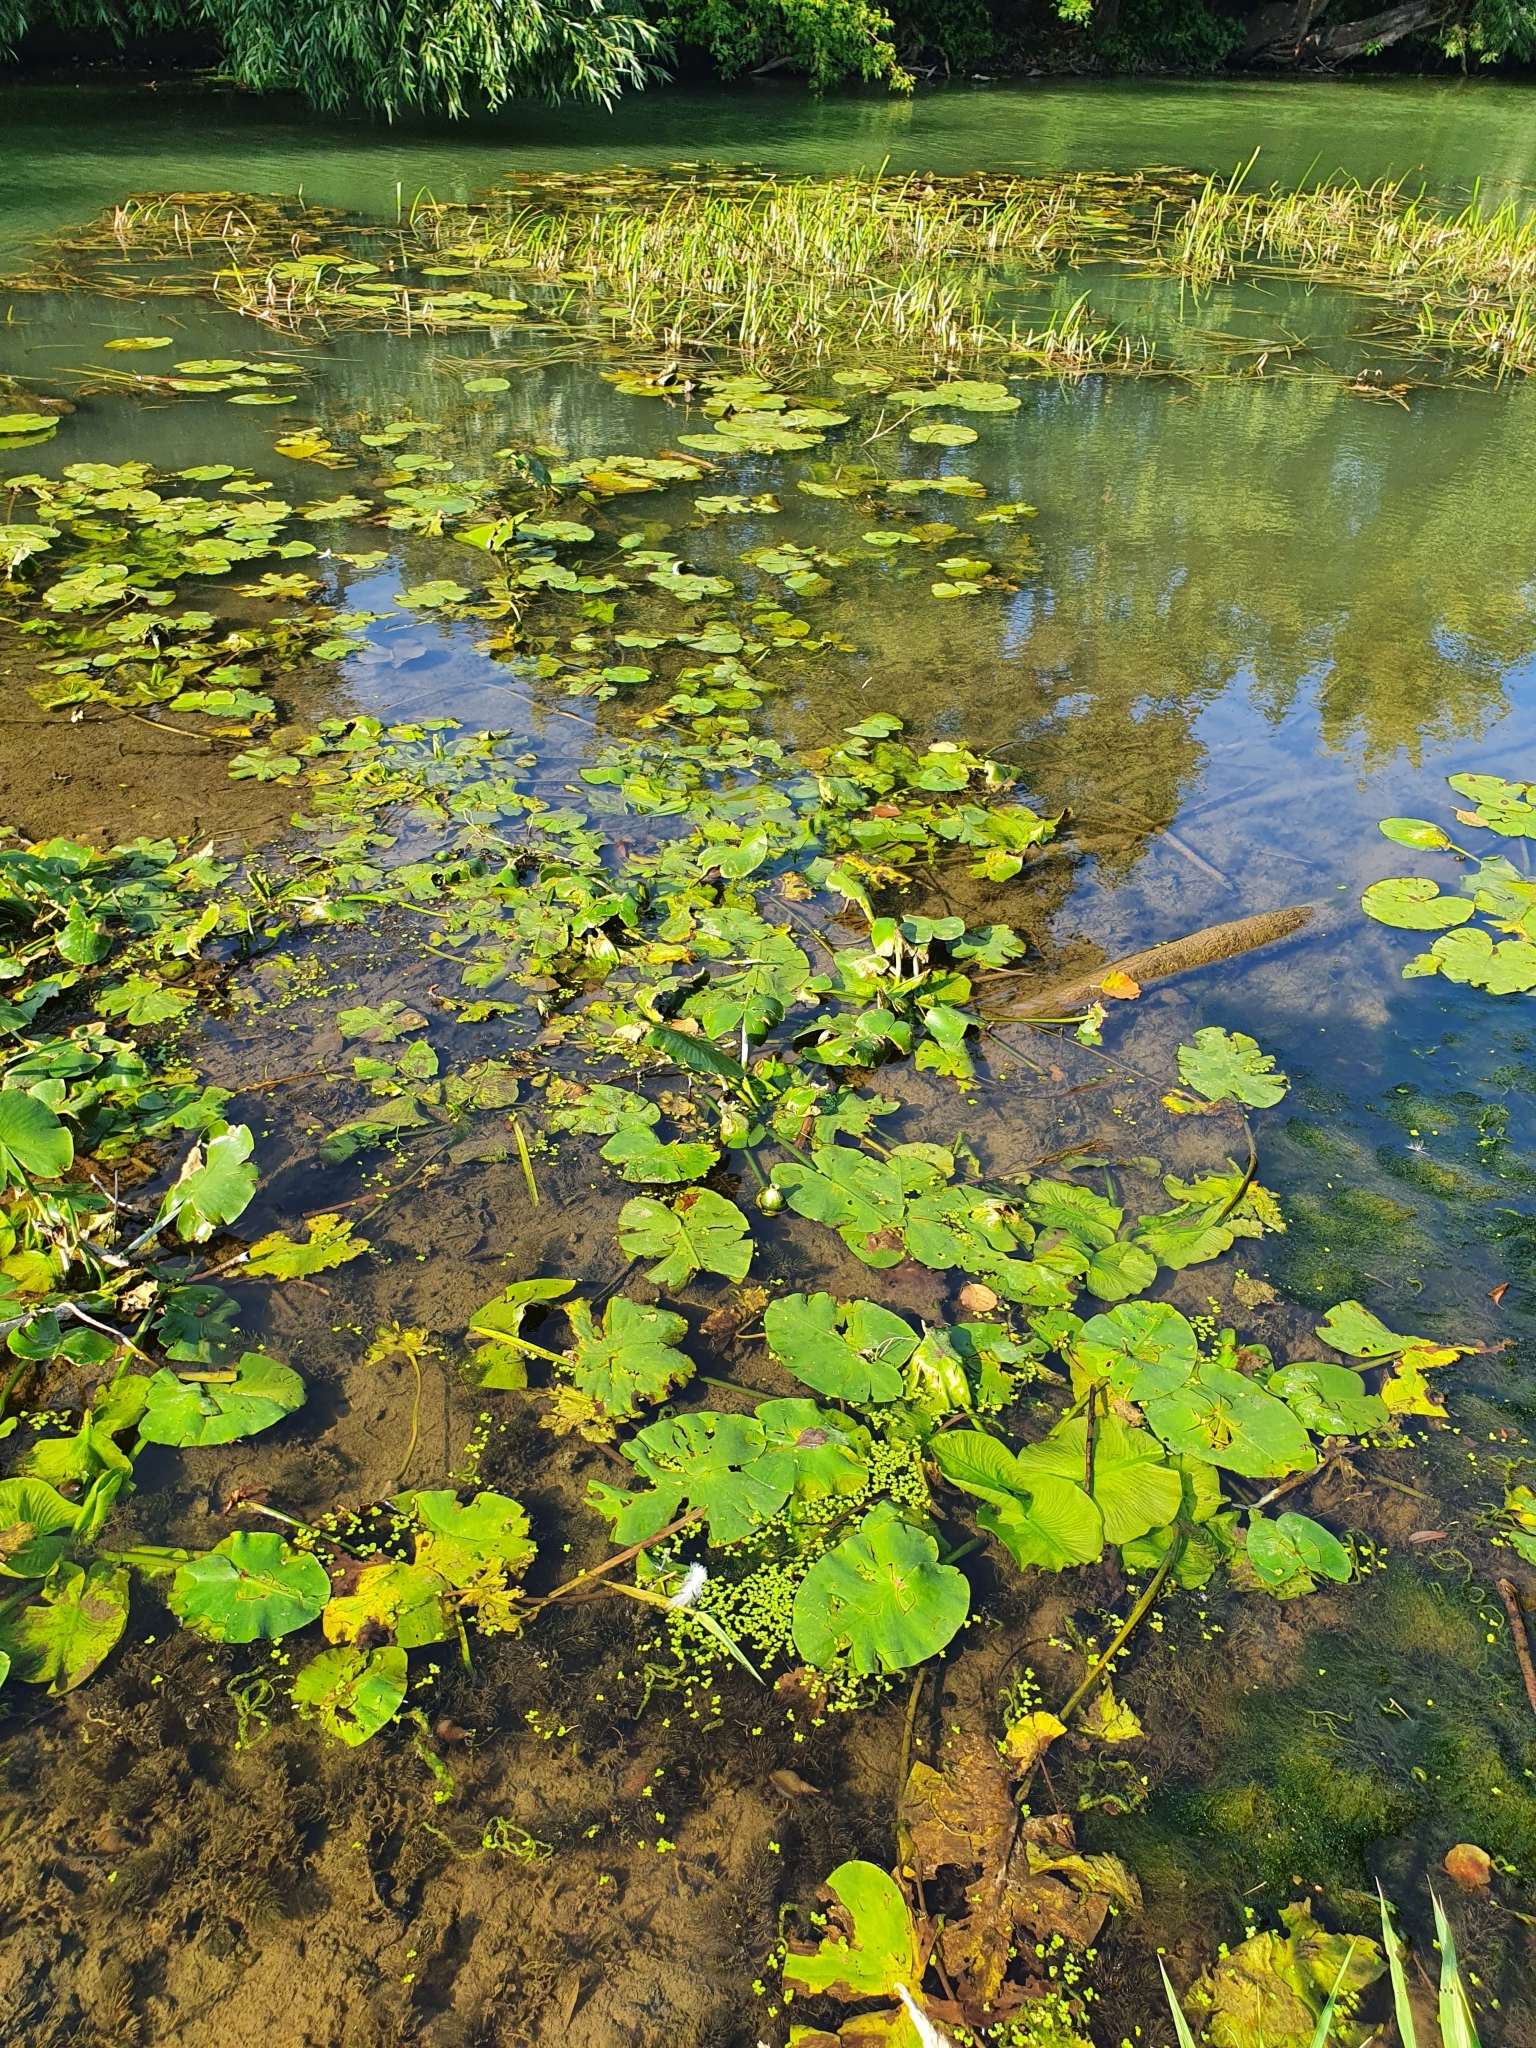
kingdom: Plantae
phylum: Tracheophyta
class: Magnoliopsida
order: Nymphaeales
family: Nymphaeaceae
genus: Nuphar
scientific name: Nuphar lutea
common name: Yellow water-lily
